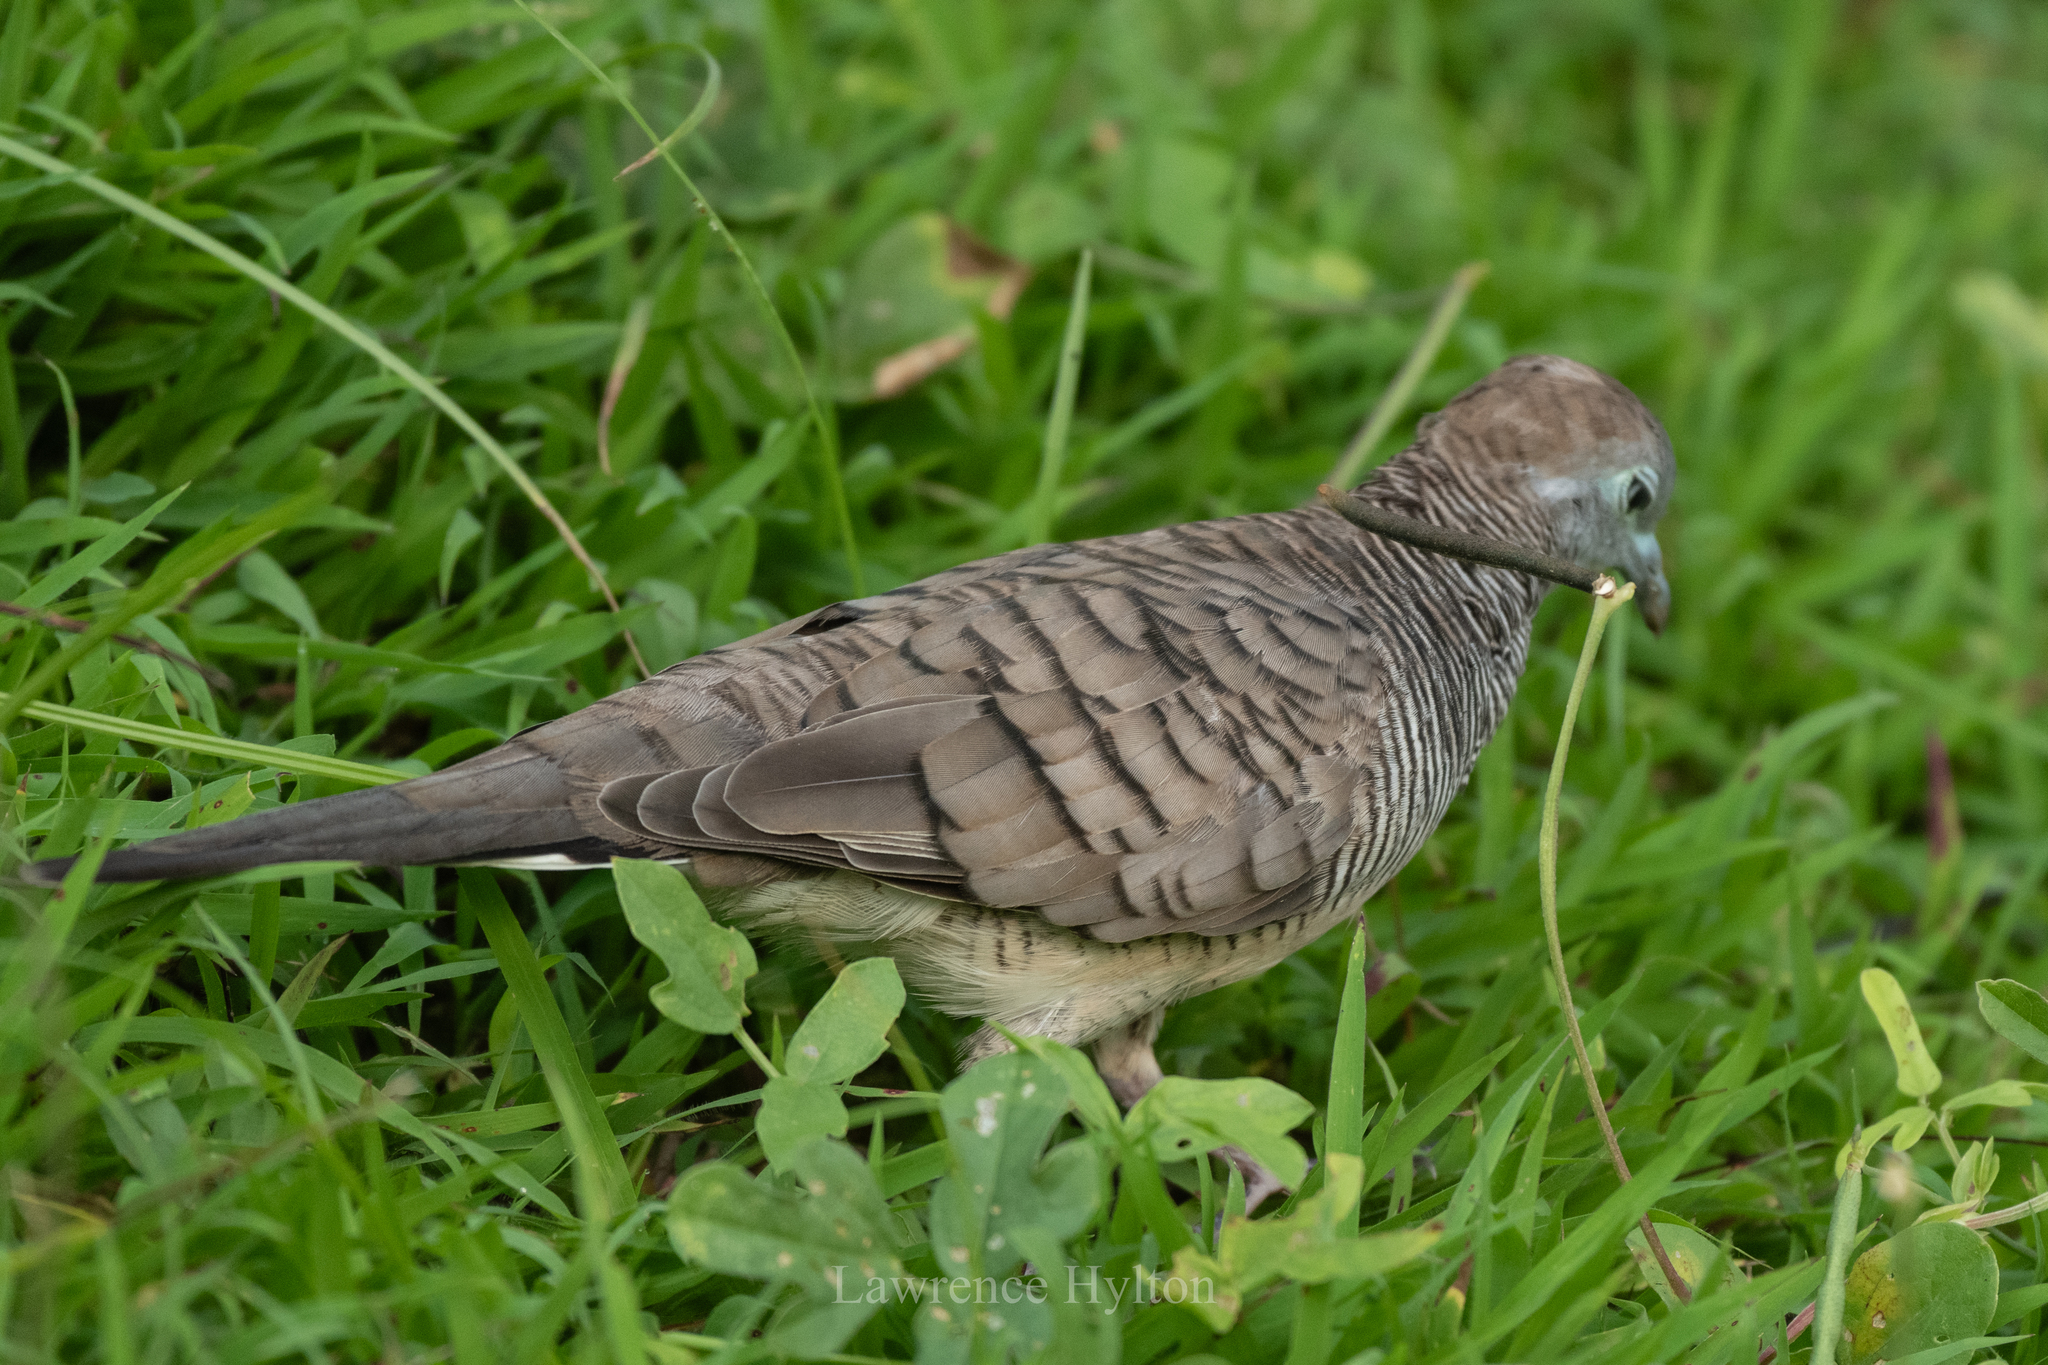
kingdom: Animalia
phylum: Chordata
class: Aves
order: Columbiformes
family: Columbidae
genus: Geopelia
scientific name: Geopelia striata
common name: Zebra dove
